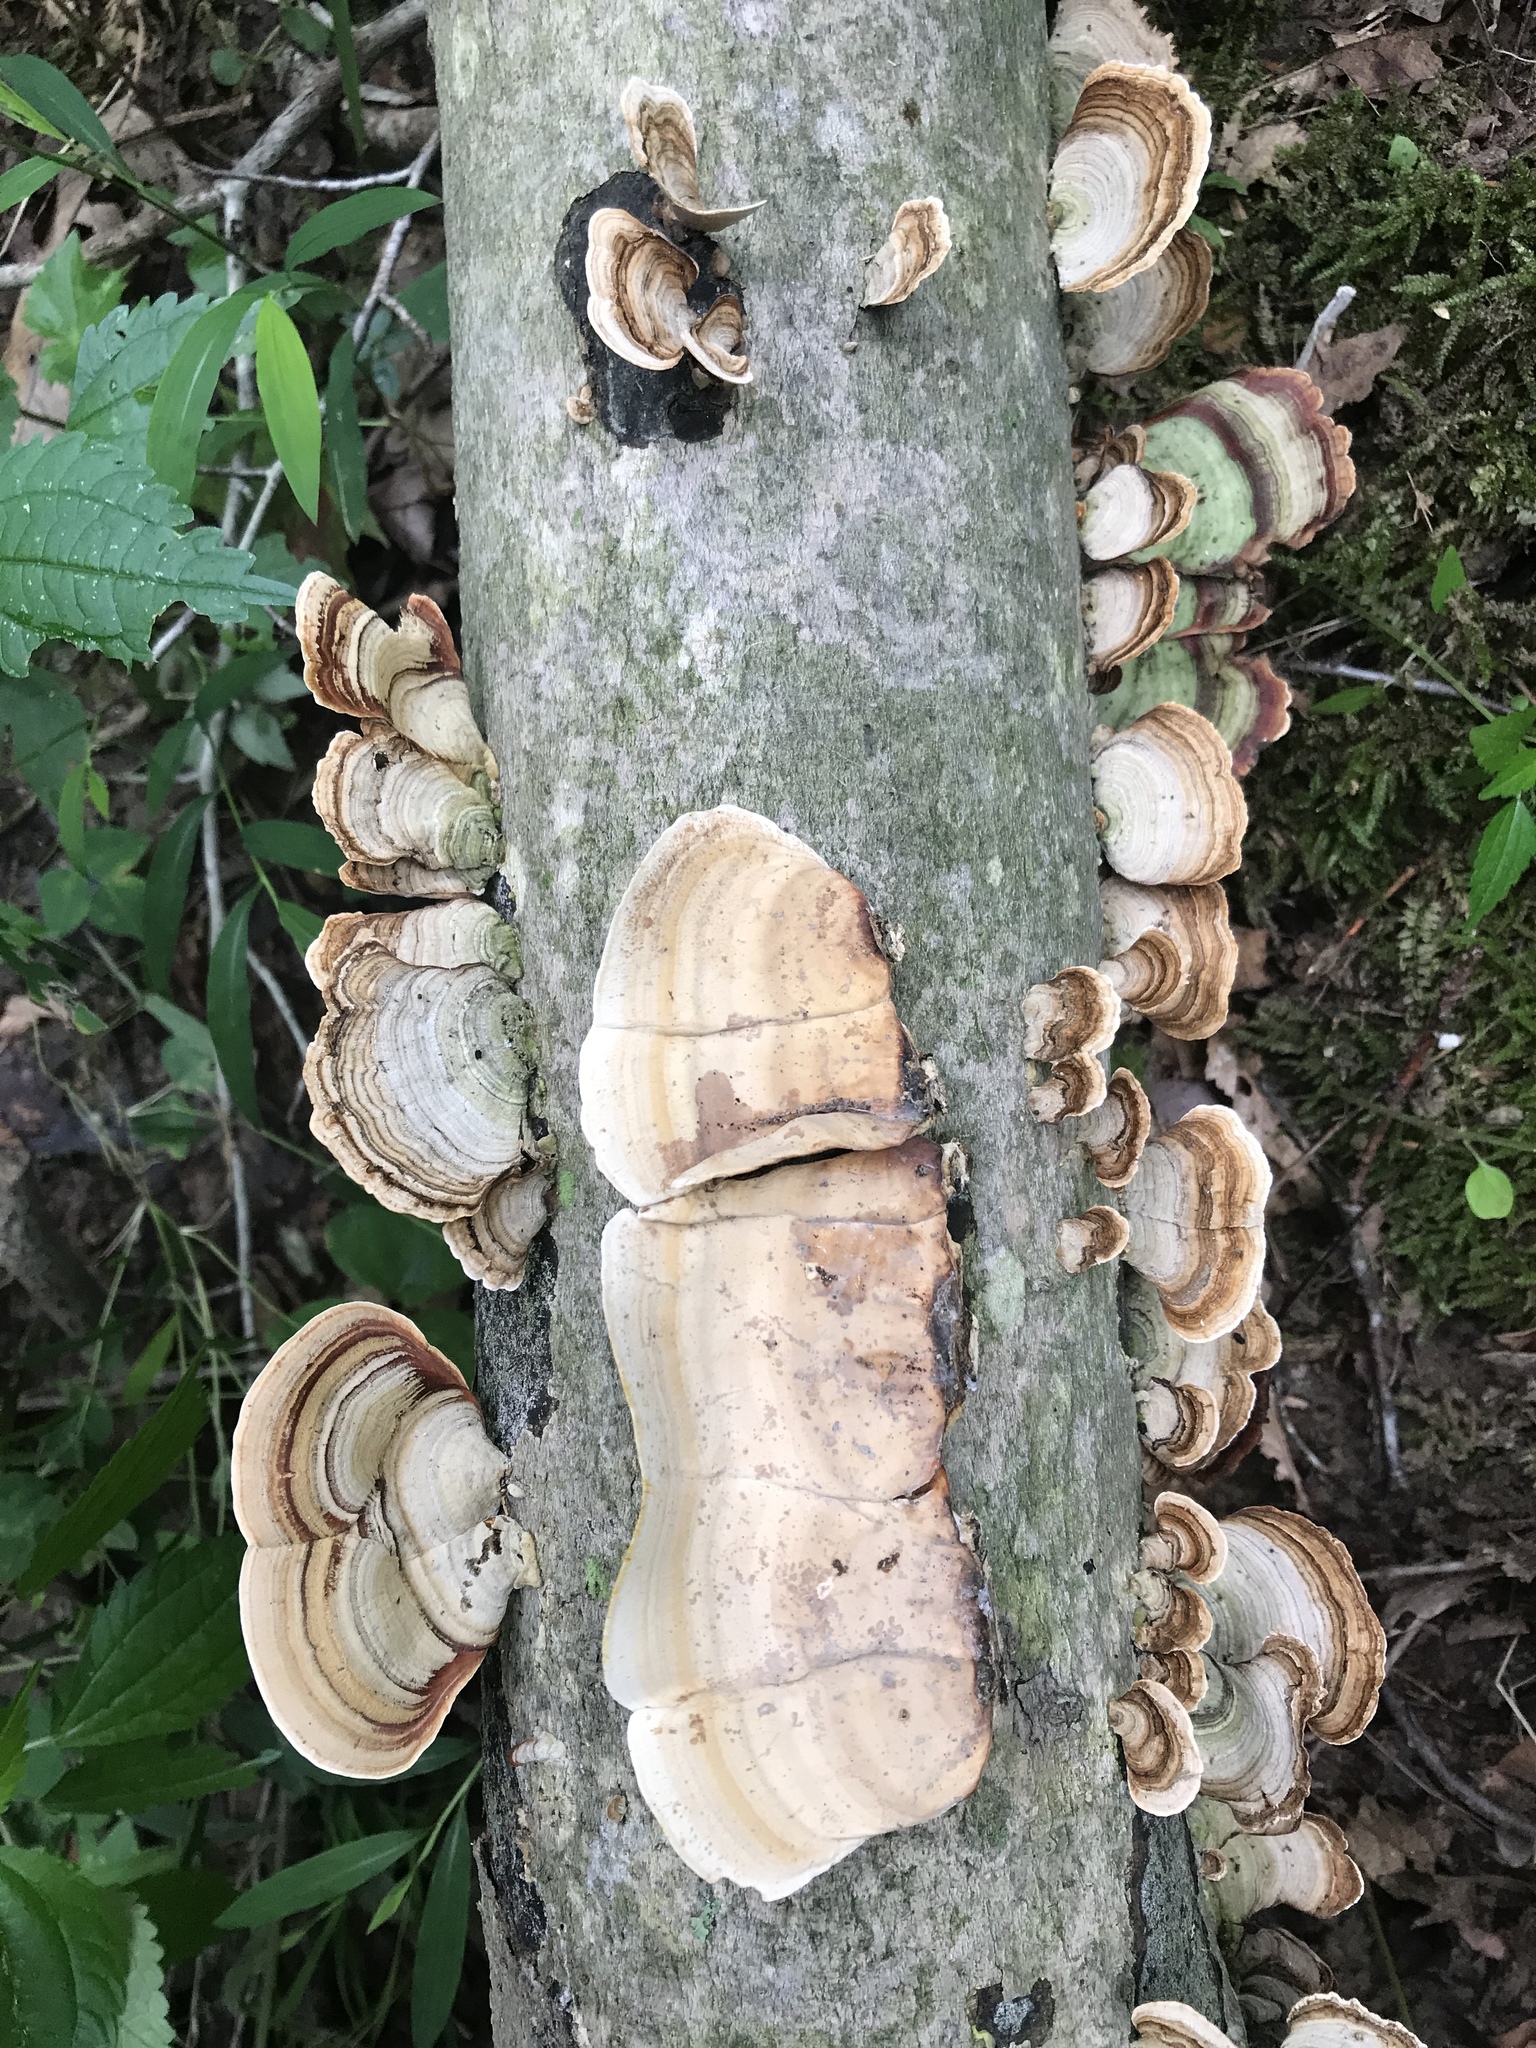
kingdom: Fungi
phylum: Basidiomycota
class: Agaricomycetes
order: Russulales
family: Stereaceae
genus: Stereum
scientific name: Stereum ostrea
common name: False turkeytail
